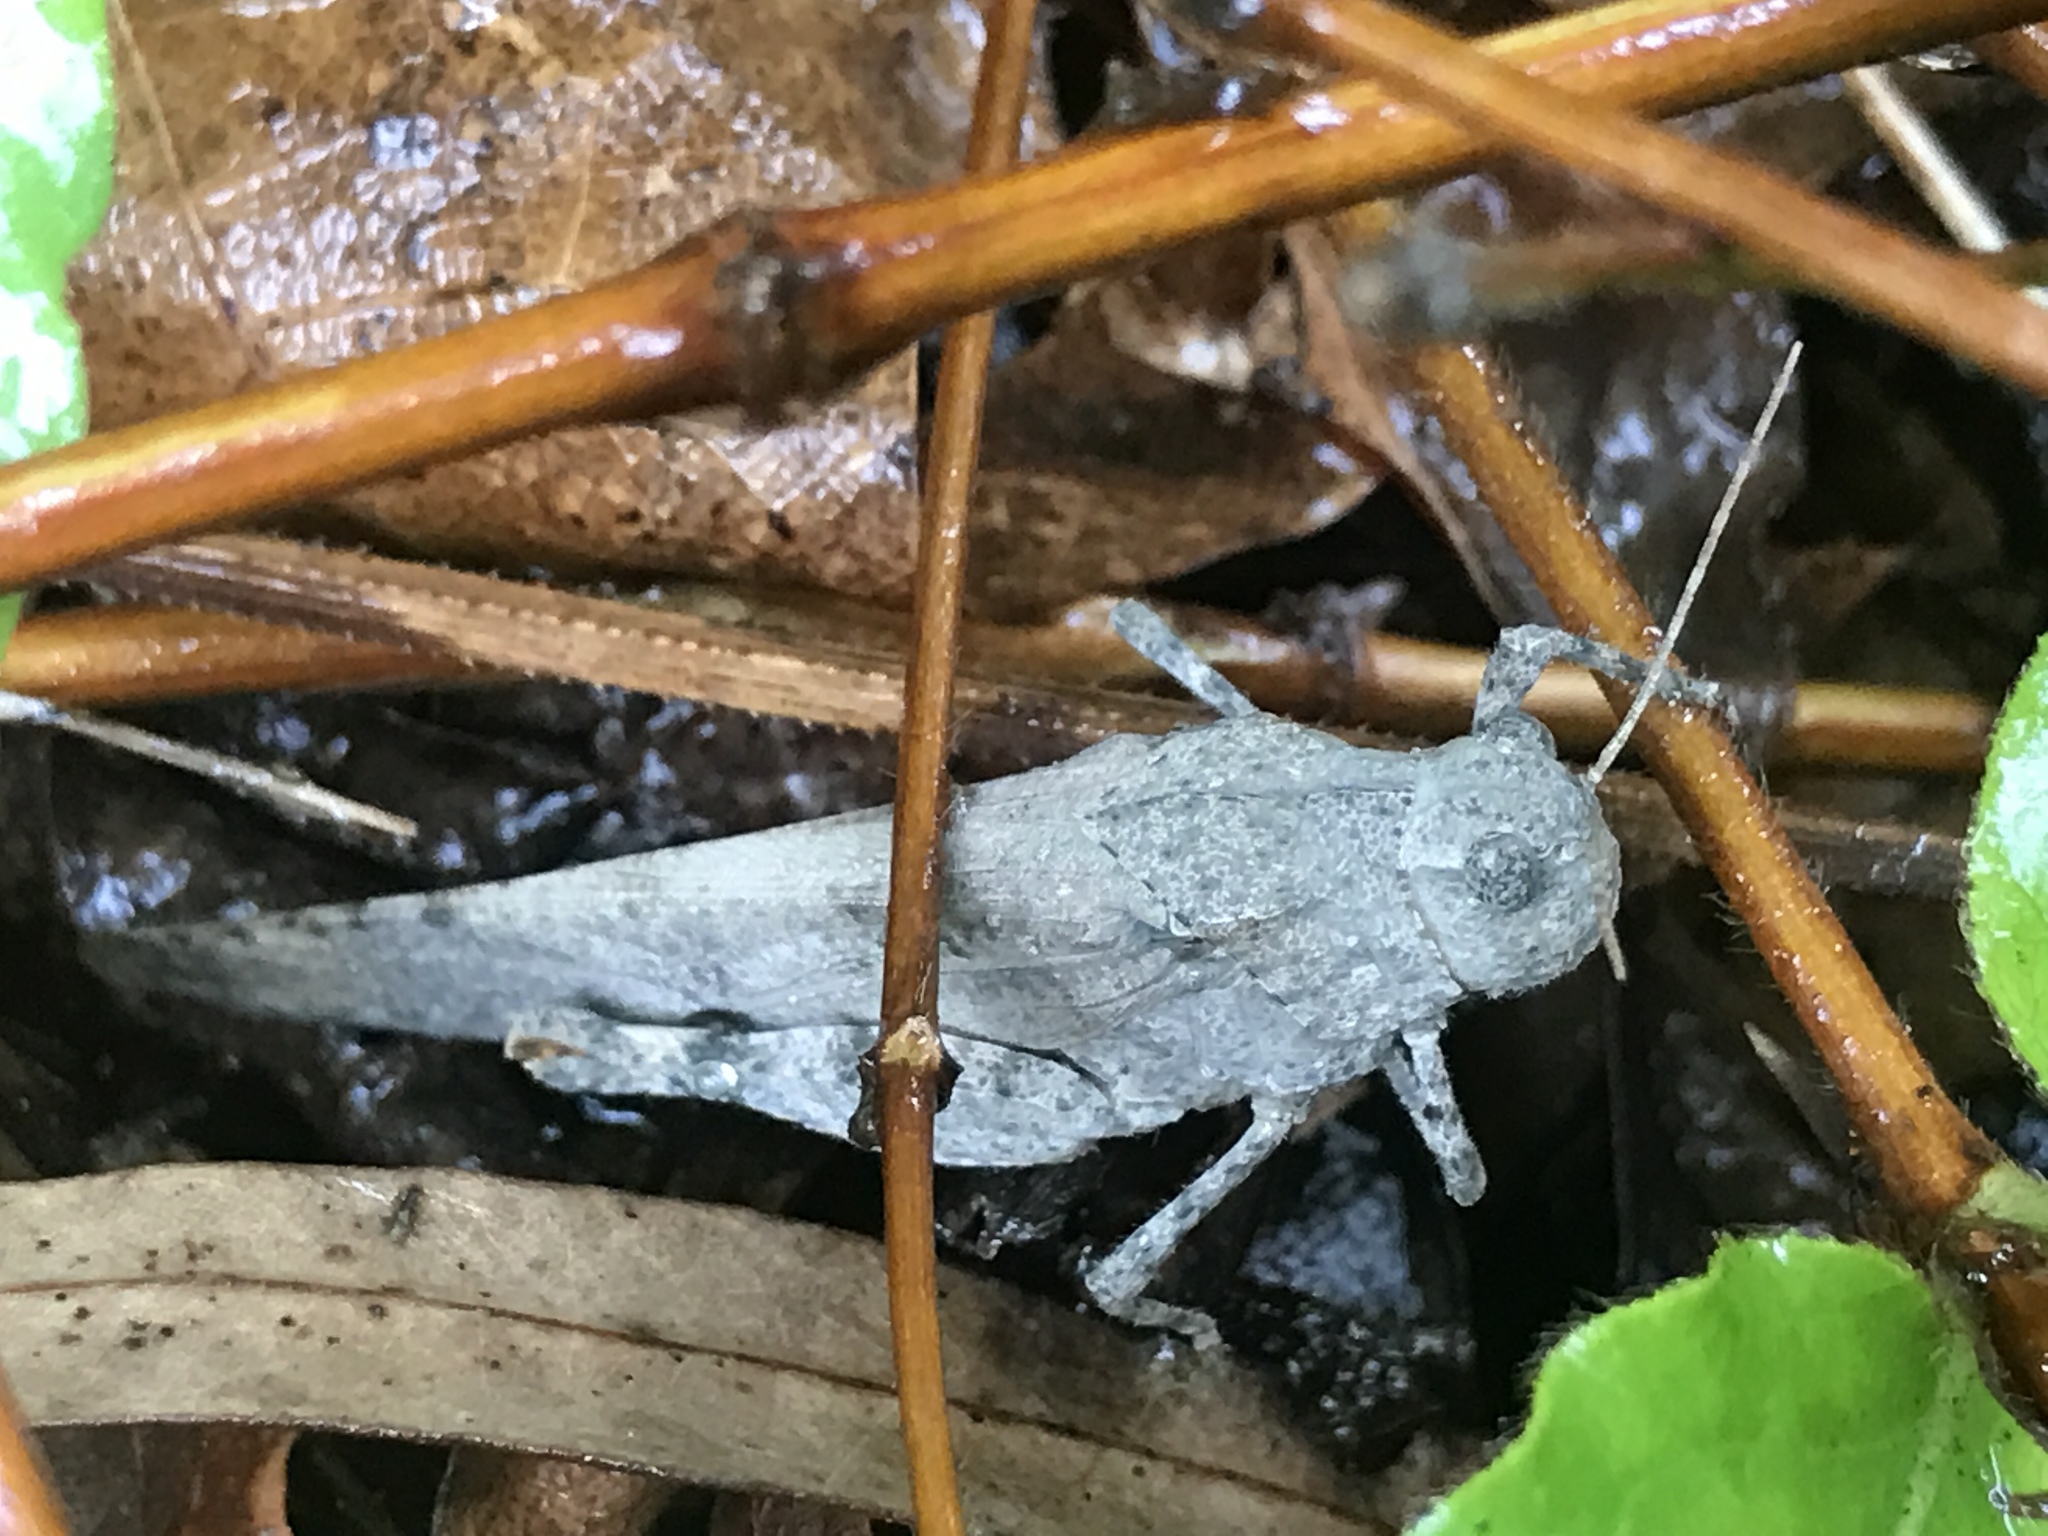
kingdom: Animalia
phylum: Arthropoda
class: Insecta
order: Orthoptera
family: Acrididae
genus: Dissosteira
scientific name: Dissosteira carolina
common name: Carolina grasshopper
